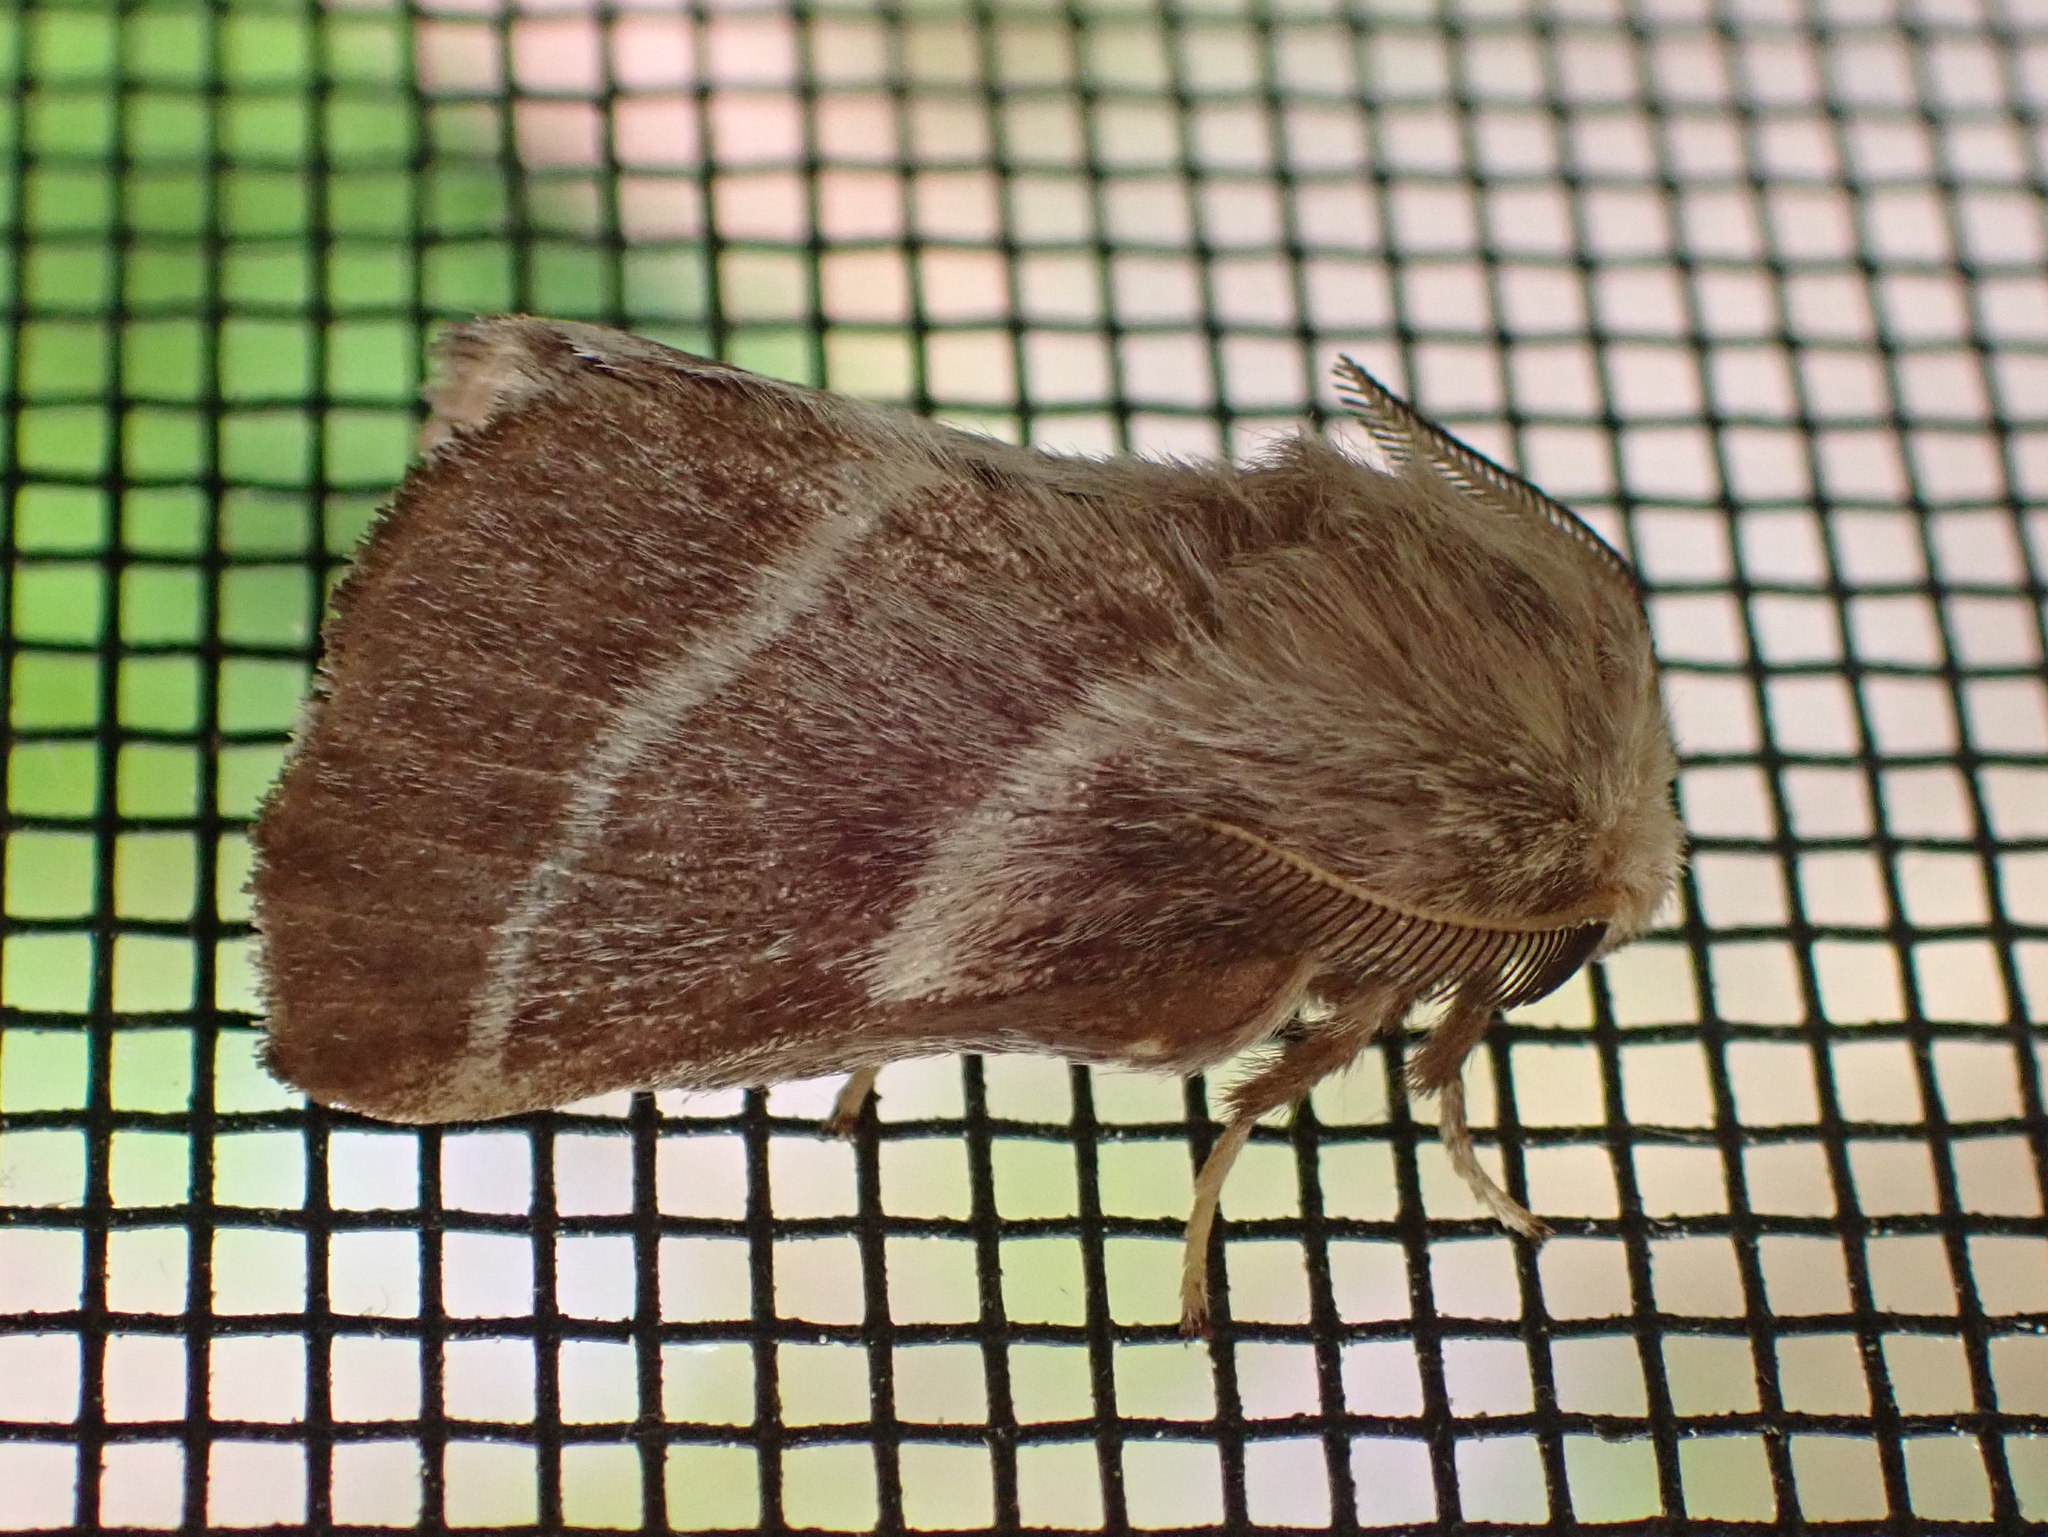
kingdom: Animalia
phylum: Arthropoda
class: Insecta
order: Lepidoptera
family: Lasiocampidae
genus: Malacosoma
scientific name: Malacosoma americana
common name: Eastern tent caterpillar moth
